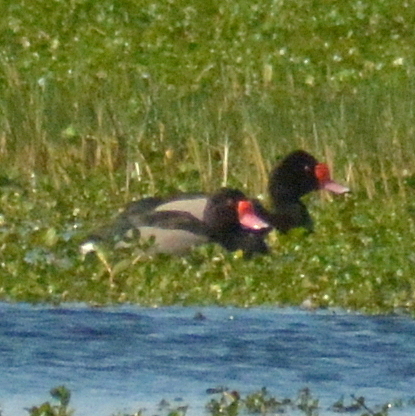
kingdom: Animalia
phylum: Chordata
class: Aves
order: Anseriformes
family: Anatidae
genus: Netta
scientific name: Netta peposaca
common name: Rosy-billed pochard
